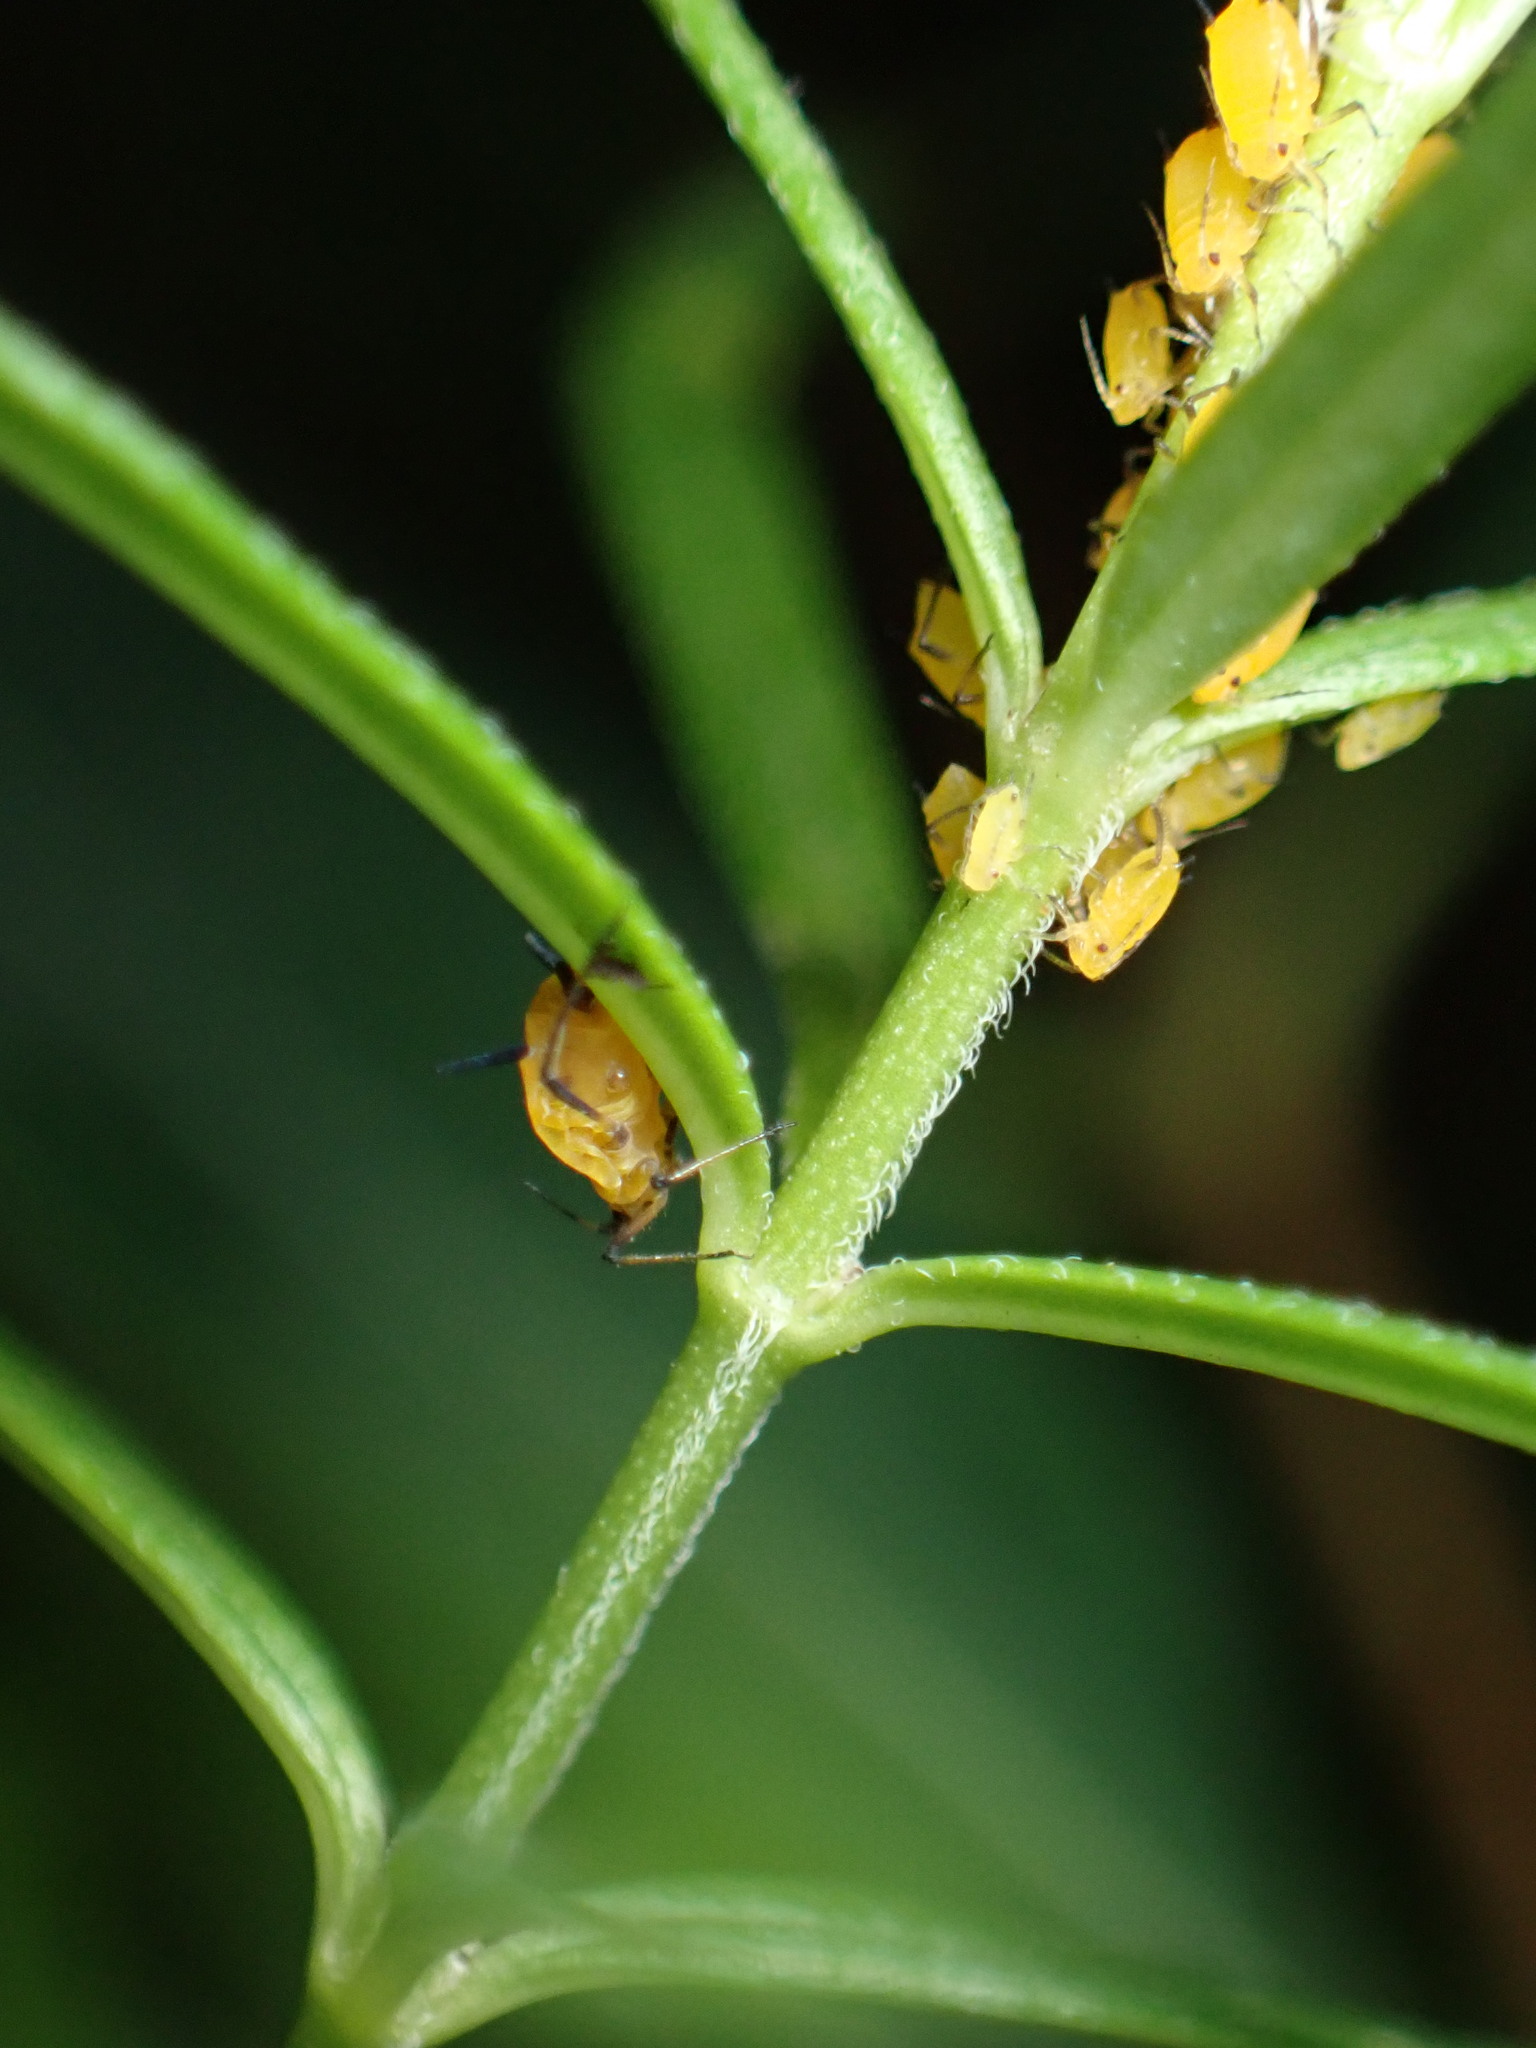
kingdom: Animalia
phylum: Arthropoda
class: Insecta
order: Hemiptera
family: Aphididae
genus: Aphis
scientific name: Aphis nerii
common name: Oleander aphid
